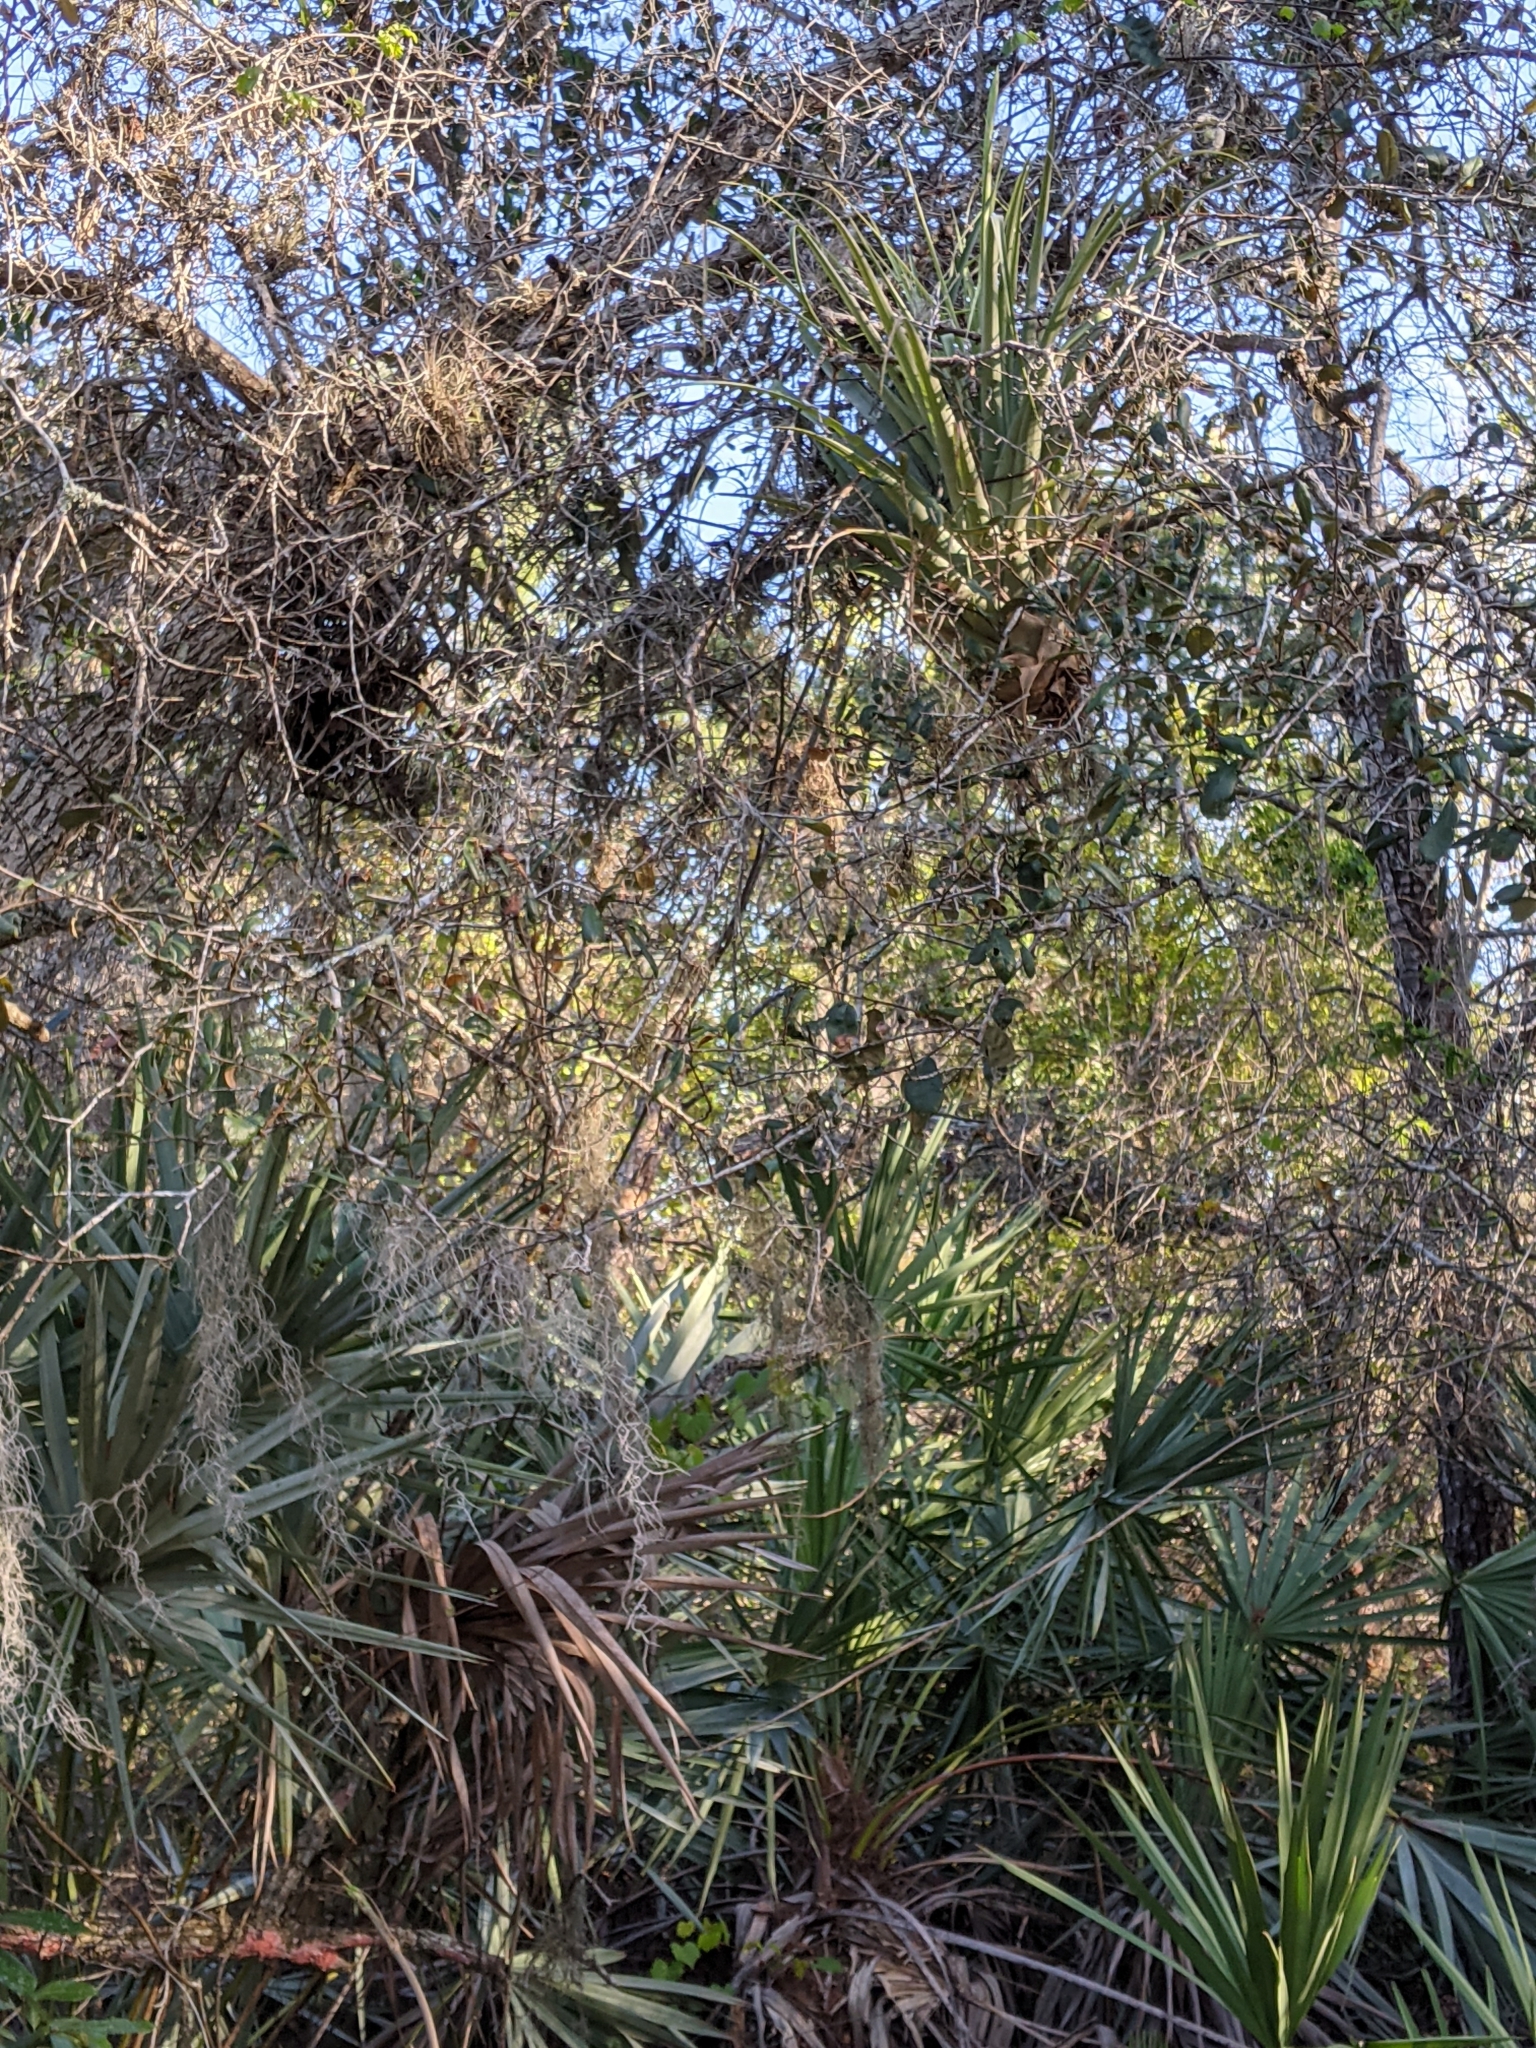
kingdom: Plantae
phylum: Tracheophyta
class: Liliopsida
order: Poales
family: Bromeliaceae
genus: Tillandsia
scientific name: Tillandsia utriculata
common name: Wild pine
